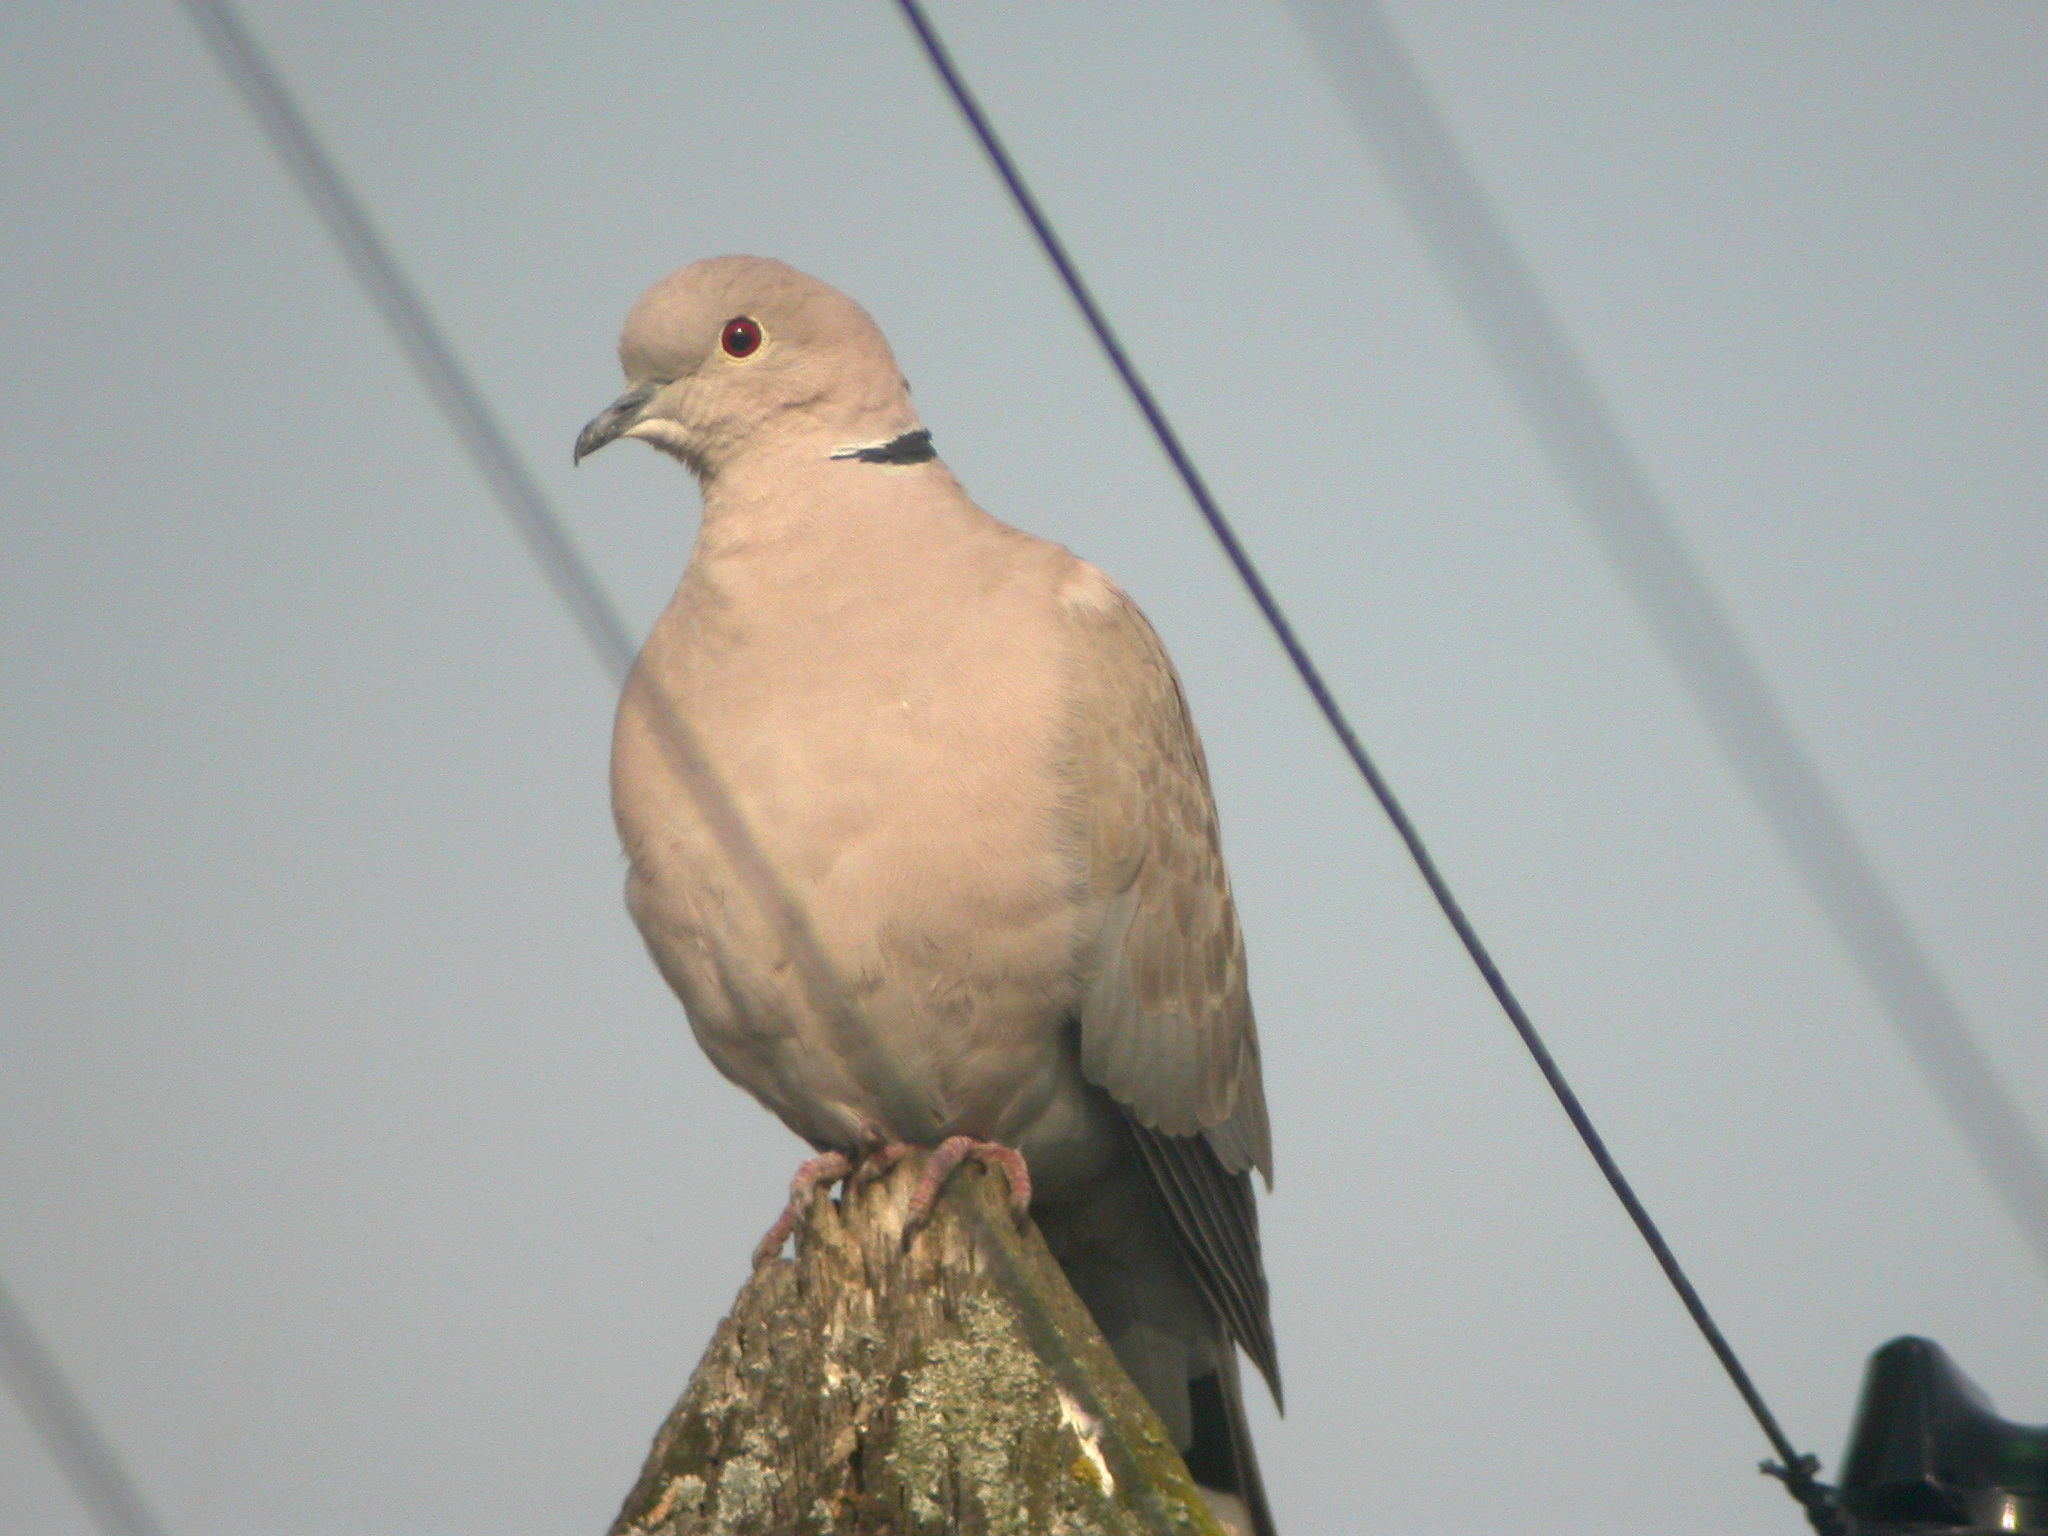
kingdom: Animalia
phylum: Chordata
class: Aves
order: Columbiformes
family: Columbidae
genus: Streptopelia
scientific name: Streptopelia decaocto
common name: Eurasian collared dove
